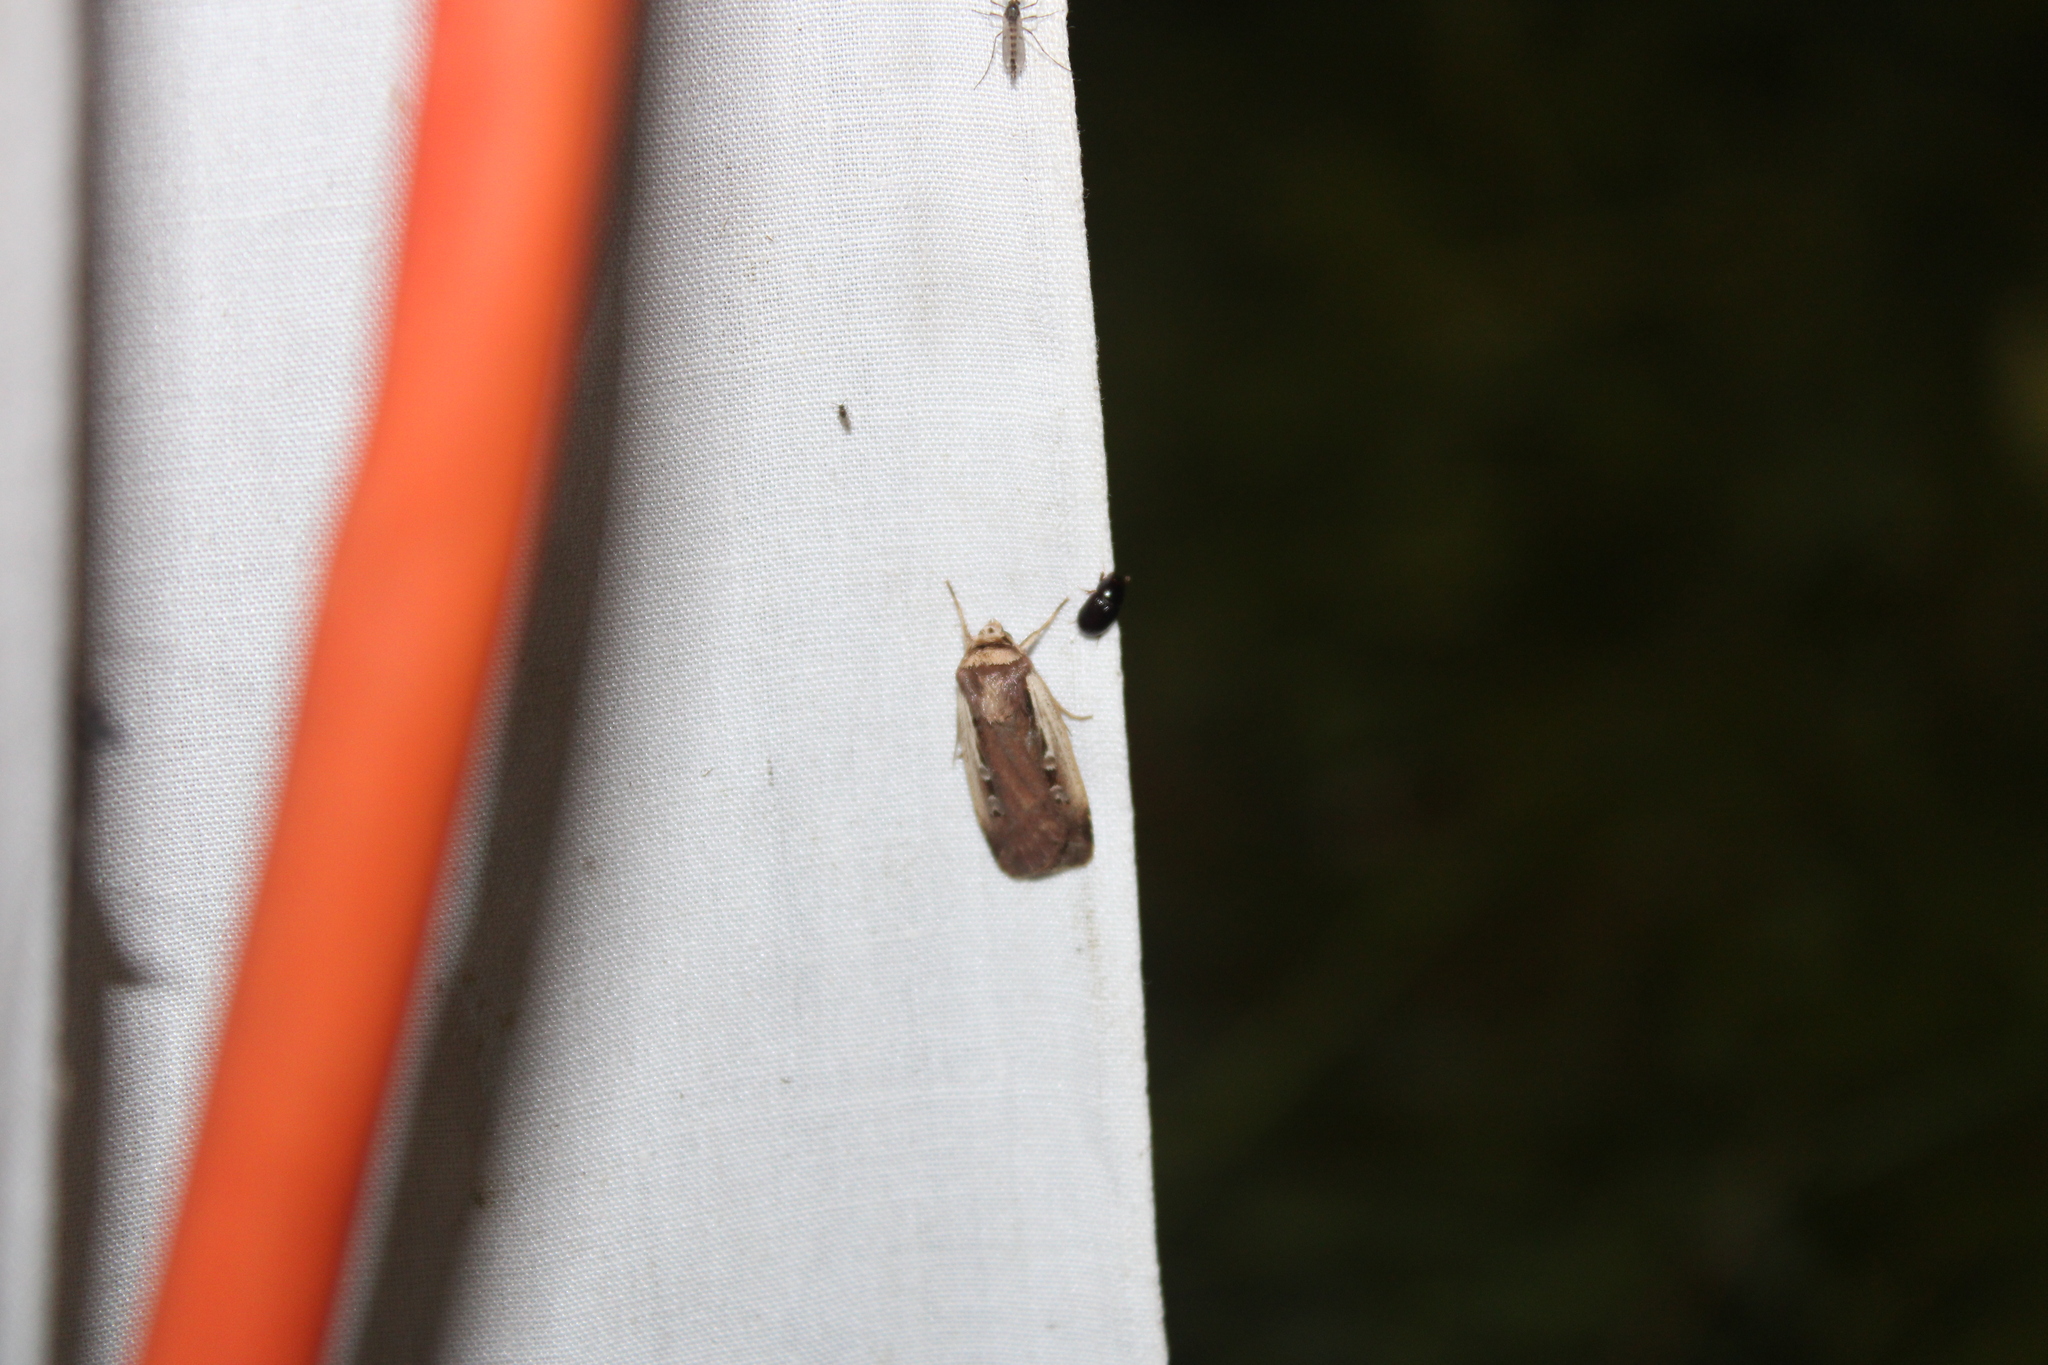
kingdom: Animalia
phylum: Arthropoda
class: Insecta
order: Lepidoptera
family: Noctuidae
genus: Ochropleura
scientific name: Ochropleura implecta
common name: Flame-shouldered dart
